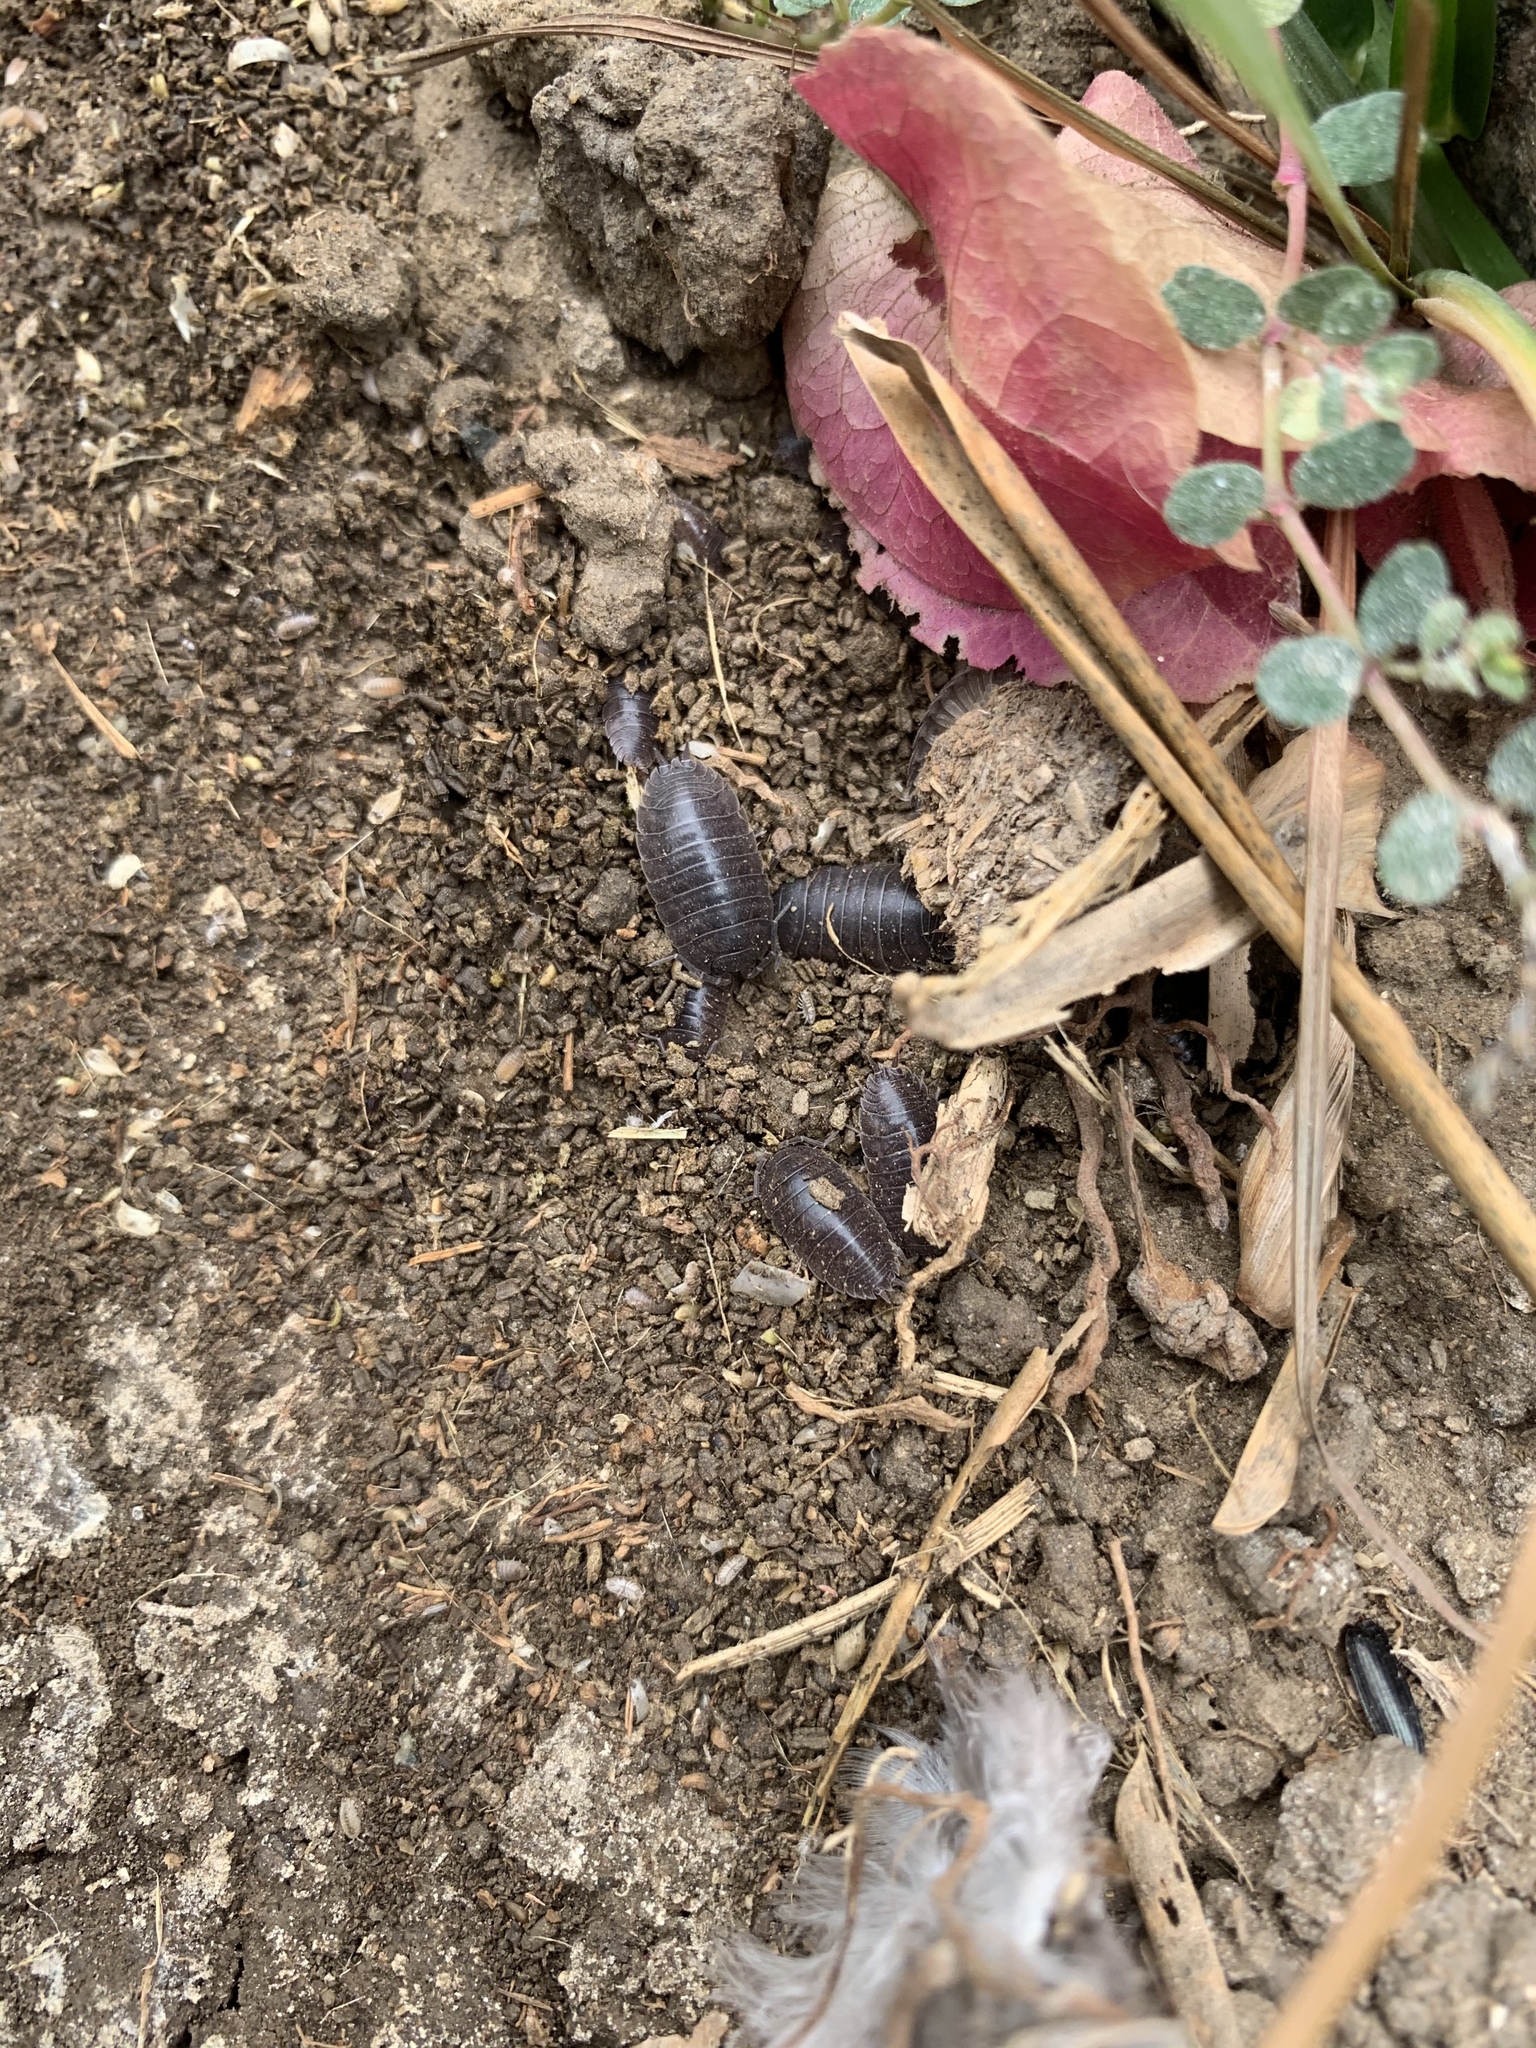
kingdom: Animalia
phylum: Arthropoda
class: Malacostraca
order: Isopoda
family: Porcellionidae
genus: Porcellio
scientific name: Porcellio laevis
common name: Swift woodlouse
